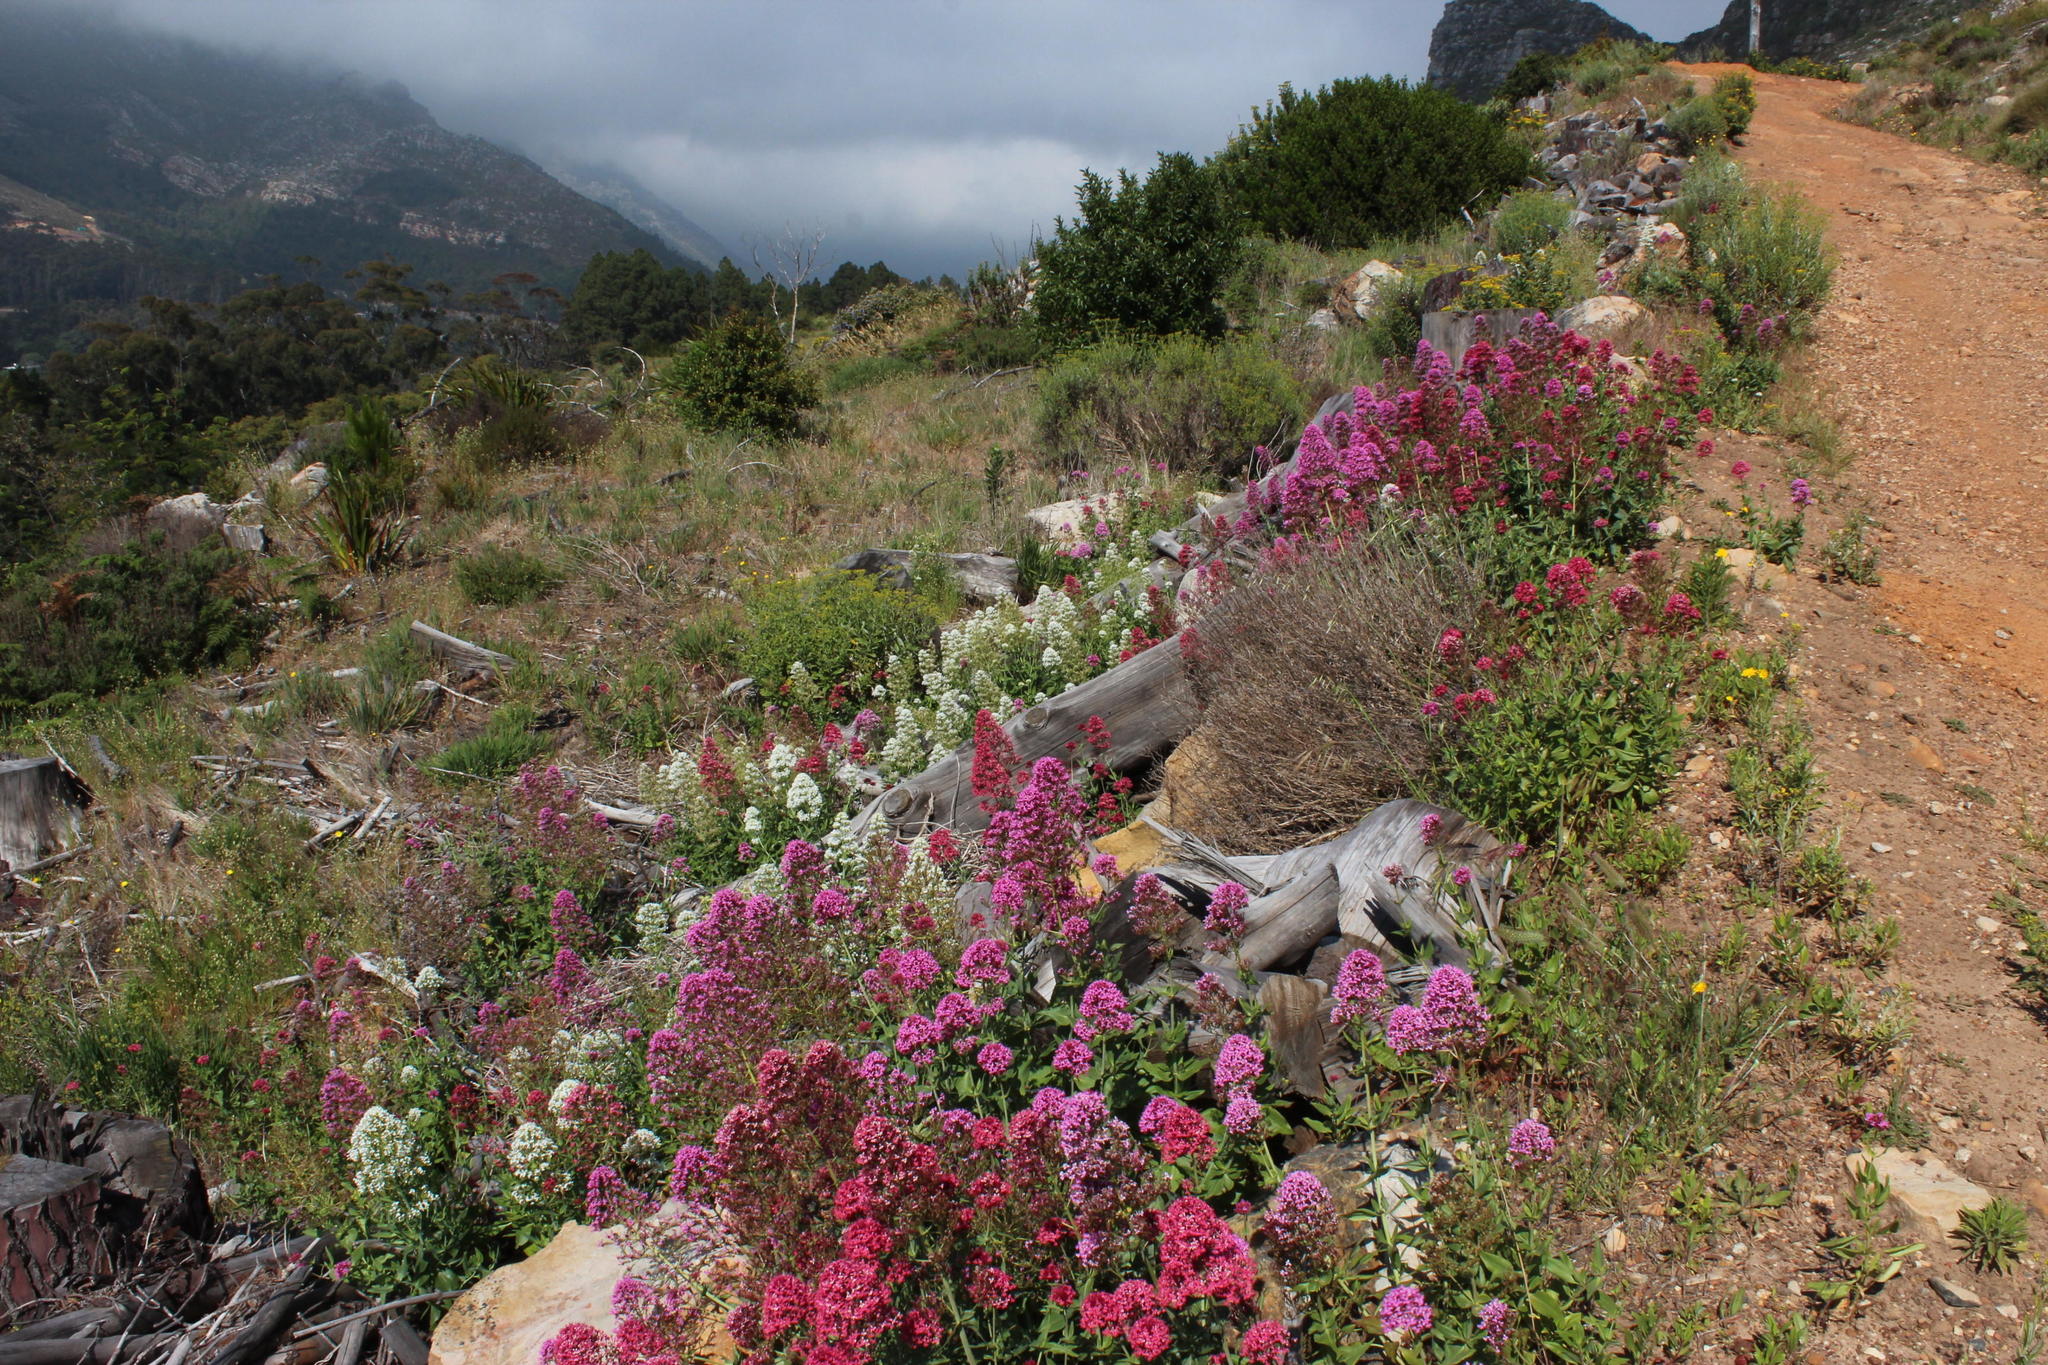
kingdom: Plantae
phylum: Tracheophyta
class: Magnoliopsida
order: Dipsacales
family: Caprifoliaceae
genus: Centranthus
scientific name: Centranthus ruber
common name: Red valerian
